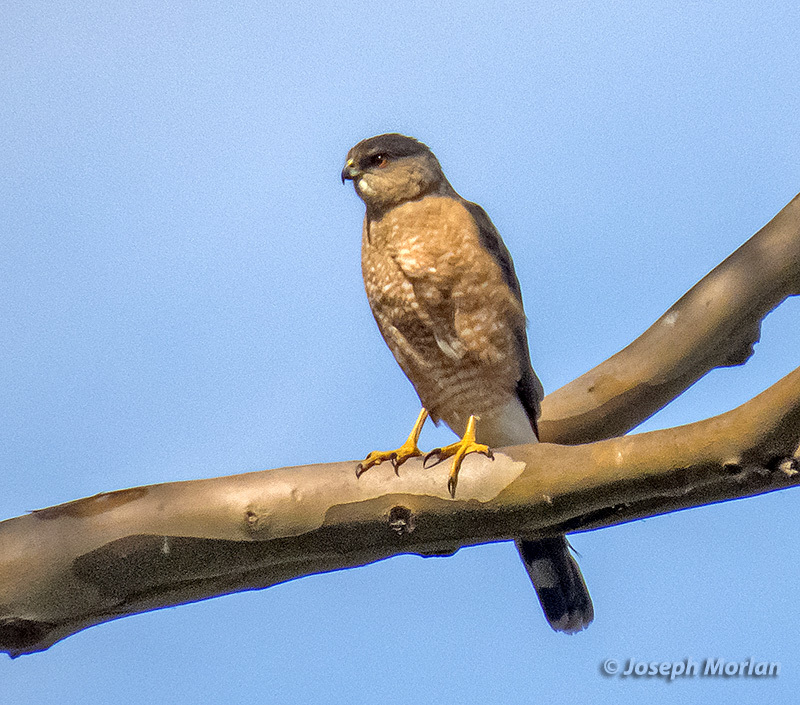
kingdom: Animalia
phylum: Chordata
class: Aves
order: Accipitriformes
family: Accipitridae
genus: Accipiter
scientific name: Accipiter cooperii
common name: Cooper's hawk
